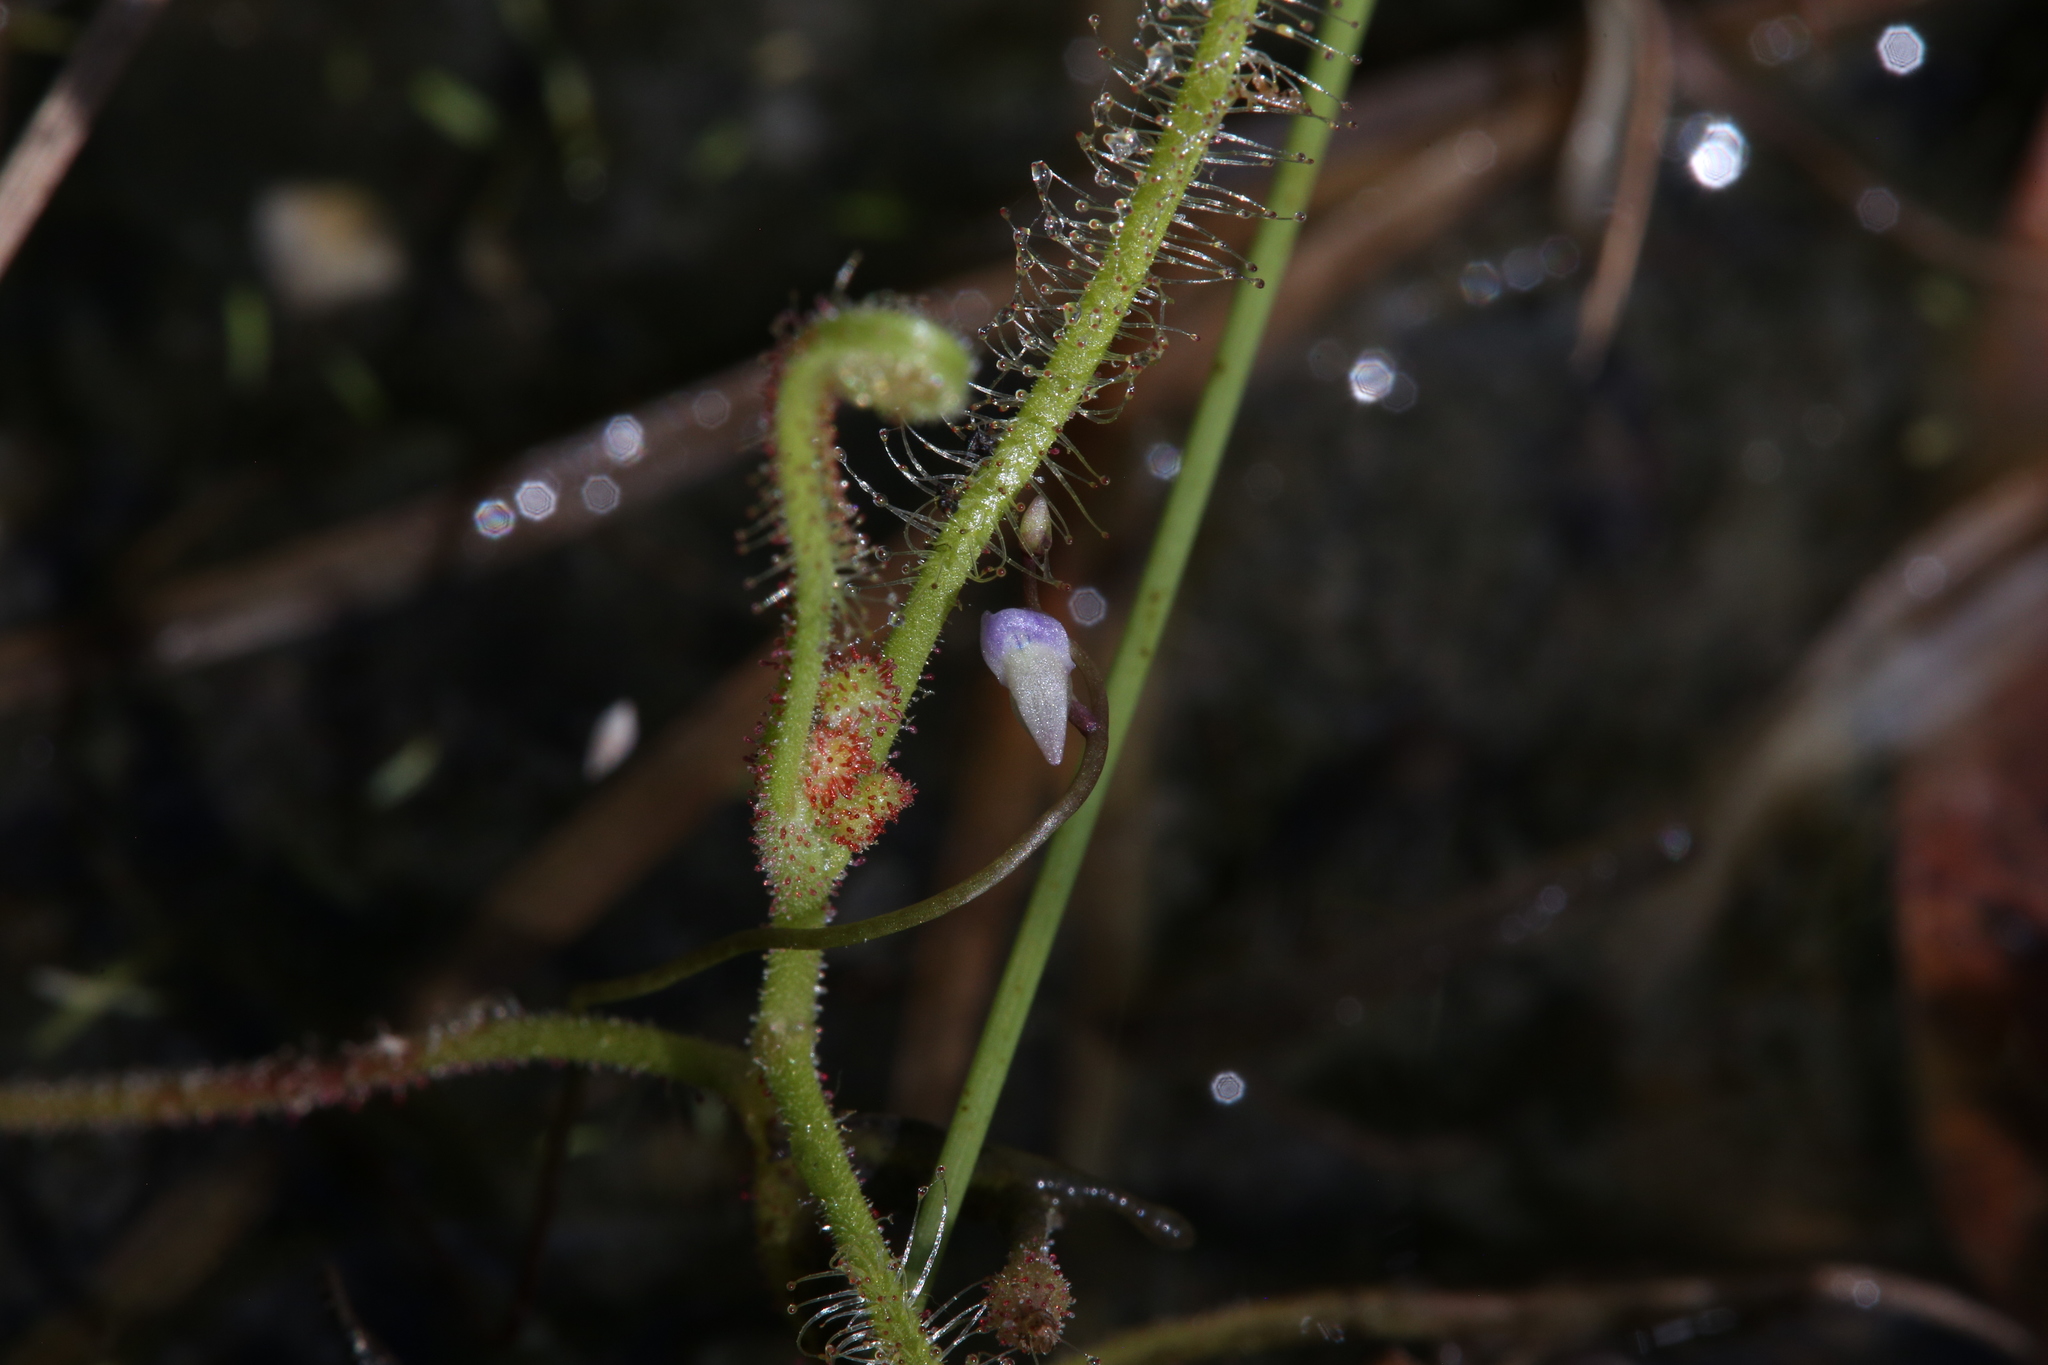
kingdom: Plantae
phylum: Tracheophyta
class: Magnoliopsida
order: Lamiales
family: Lentibulariaceae
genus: Utricularia
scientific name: Utricularia foveolata
